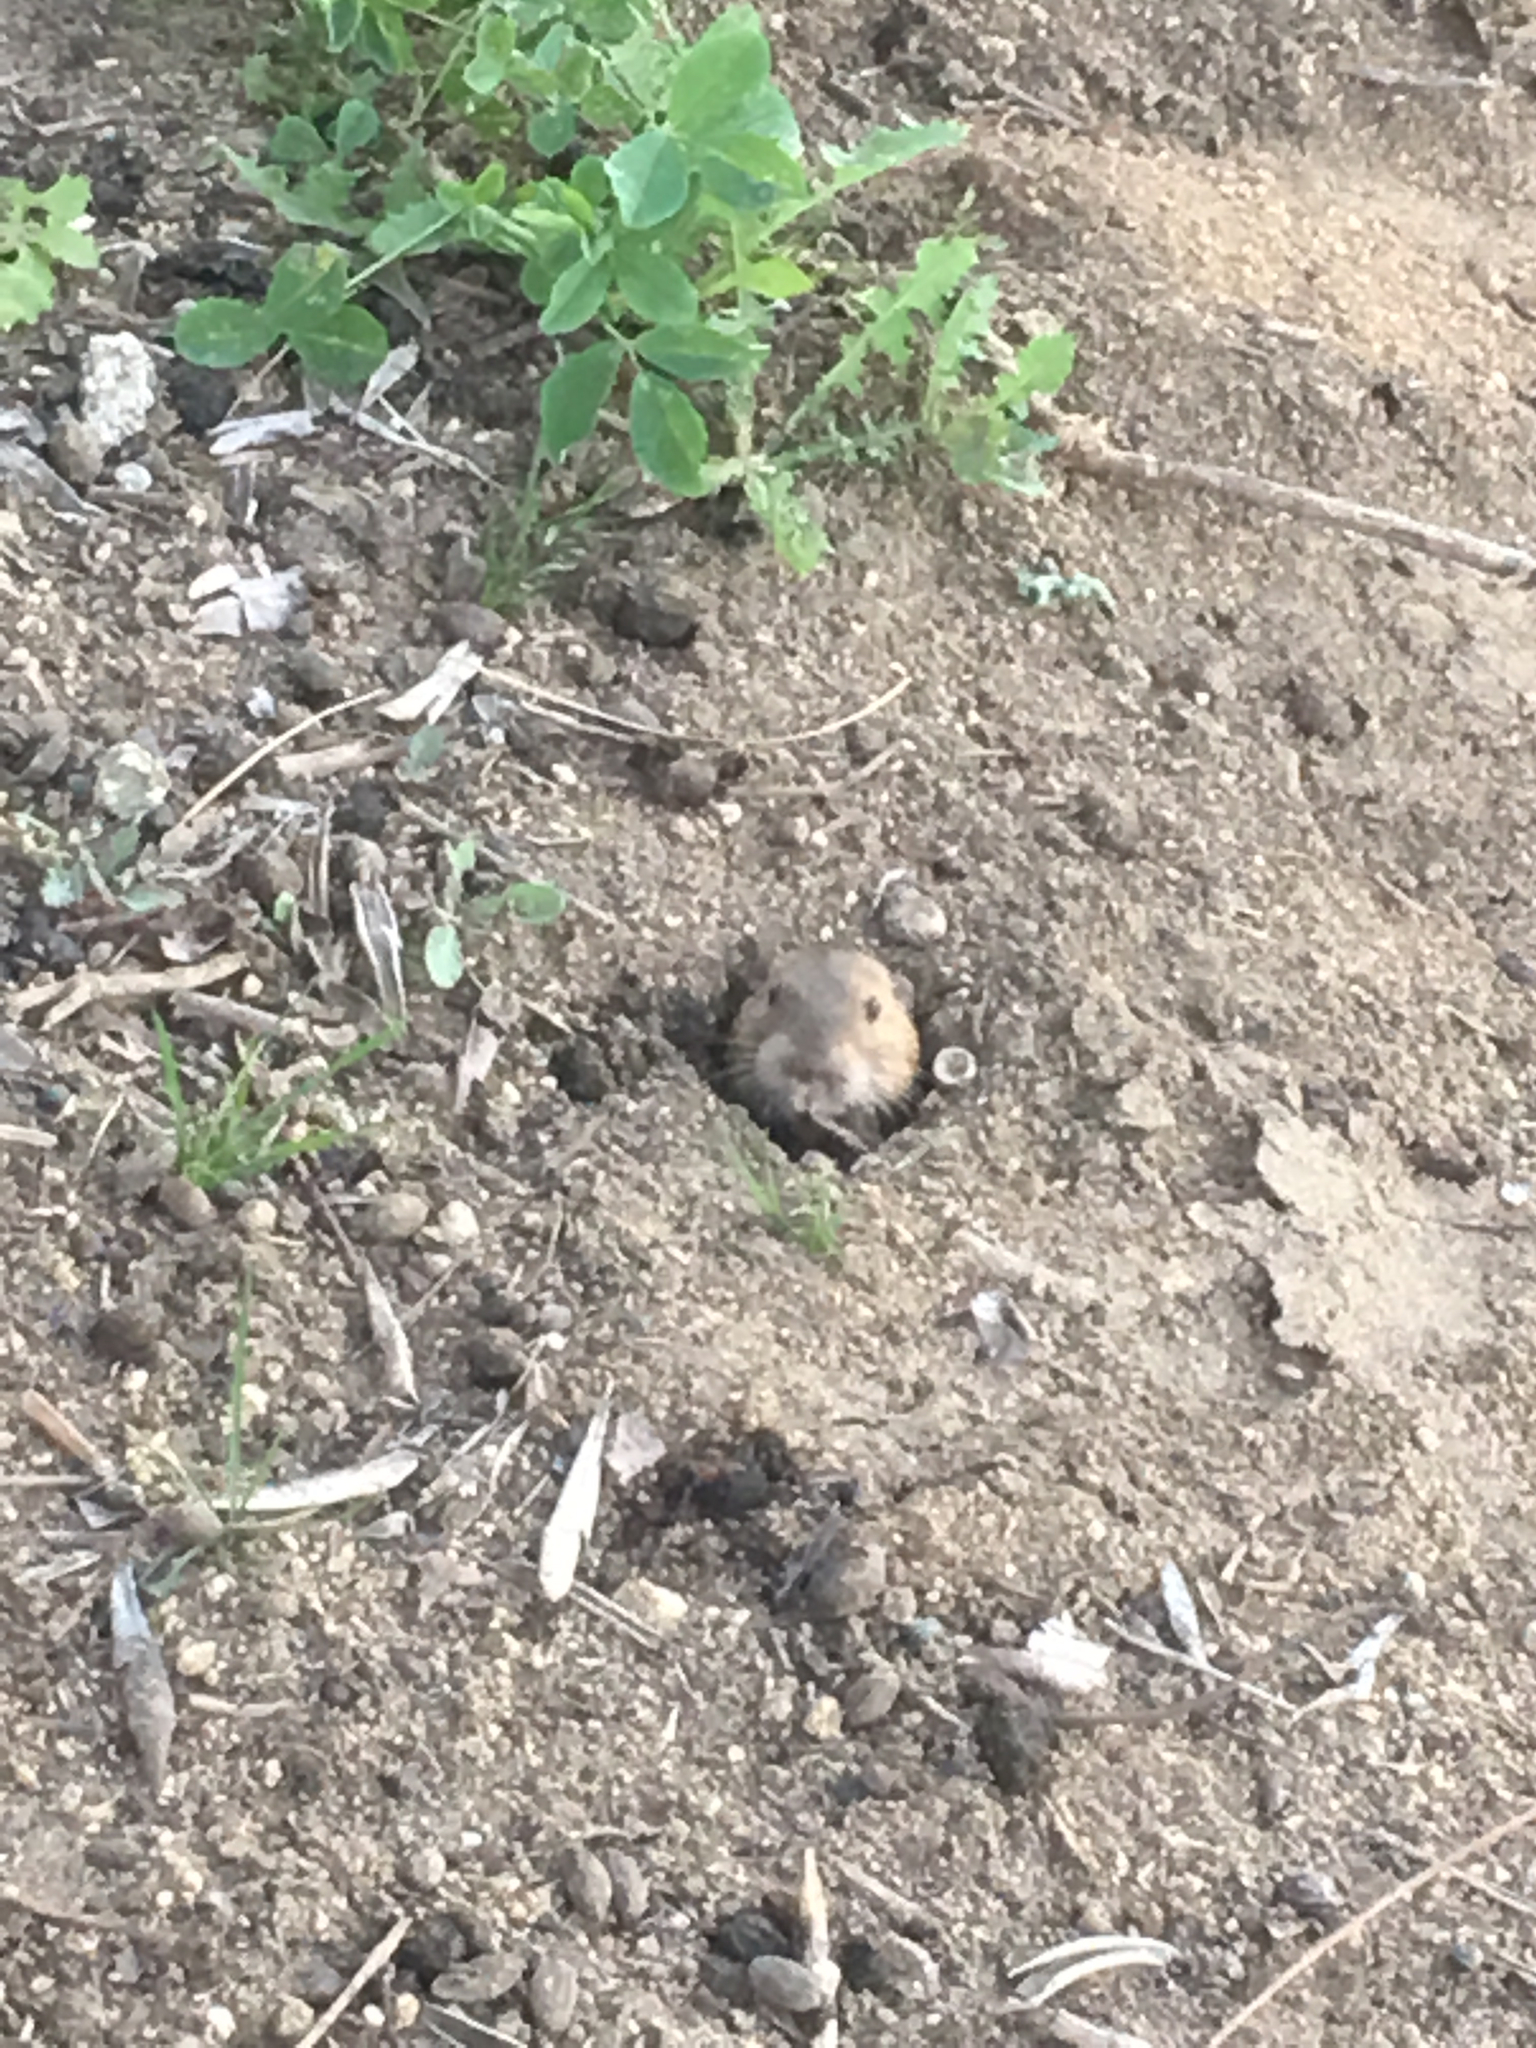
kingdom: Animalia
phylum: Chordata
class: Mammalia
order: Rodentia
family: Geomyidae
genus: Thomomys
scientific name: Thomomys bottae
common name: Botta's pocket gopher
